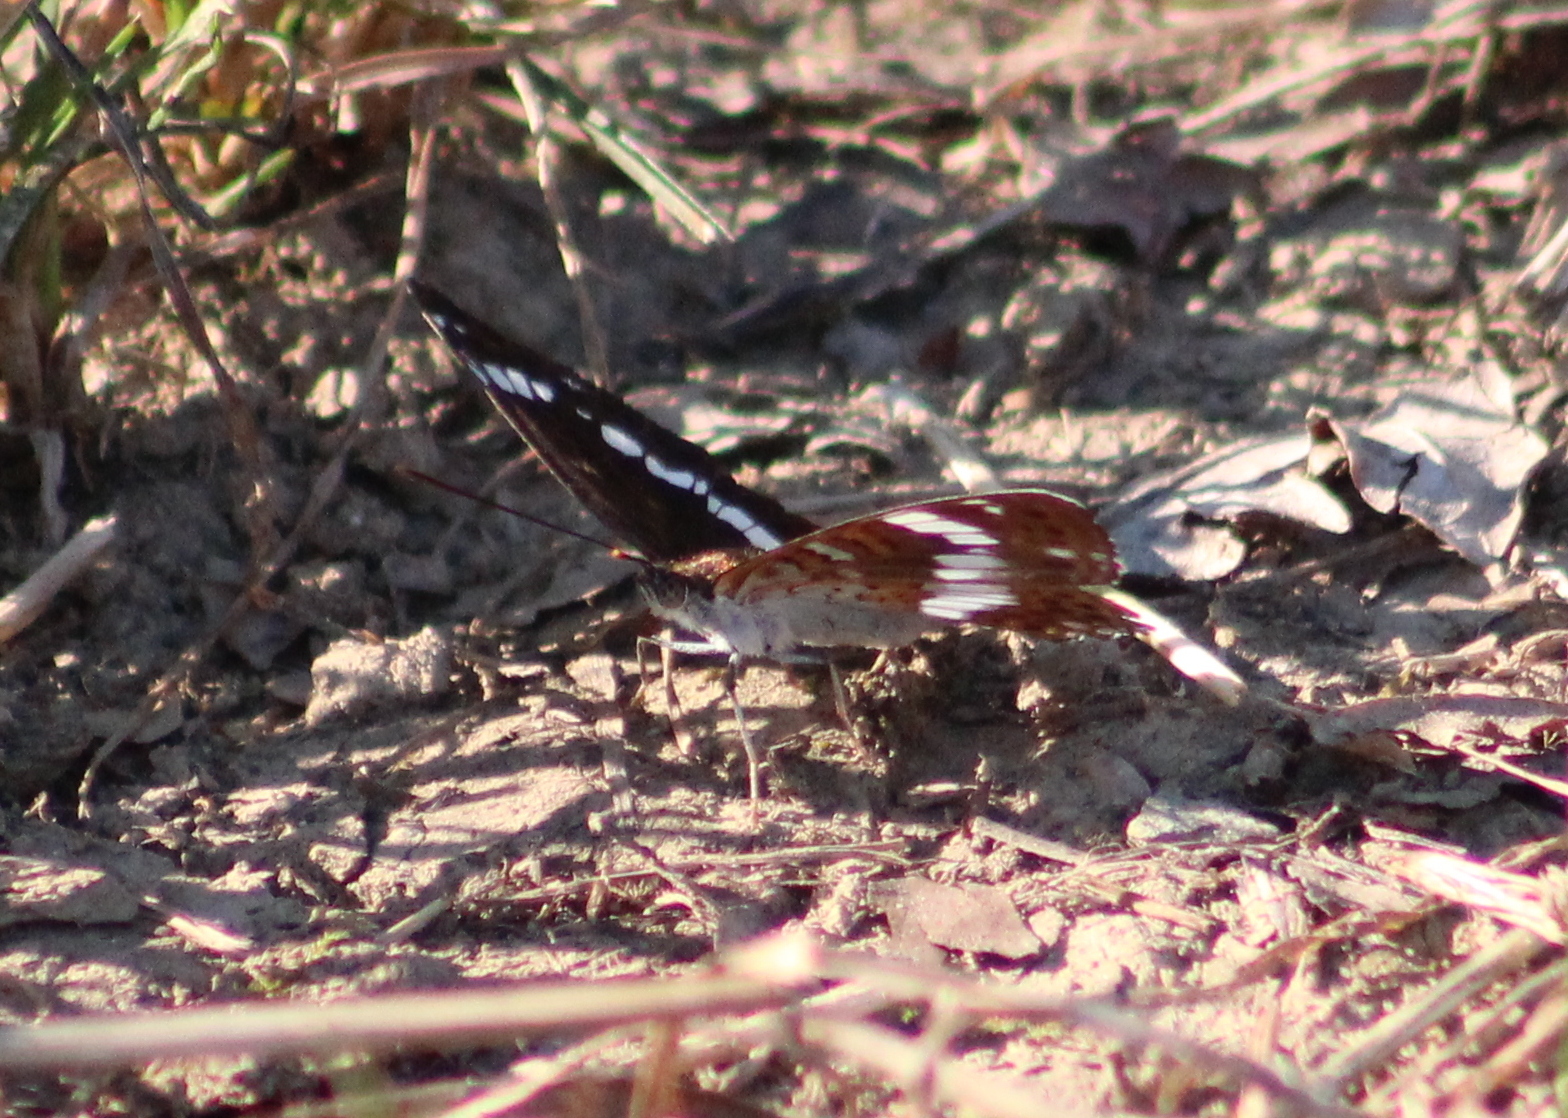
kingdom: Animalia
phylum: Arthropoda
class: Insecta
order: Lepidoptera
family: Nymphalidae
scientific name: Nymphalidae
